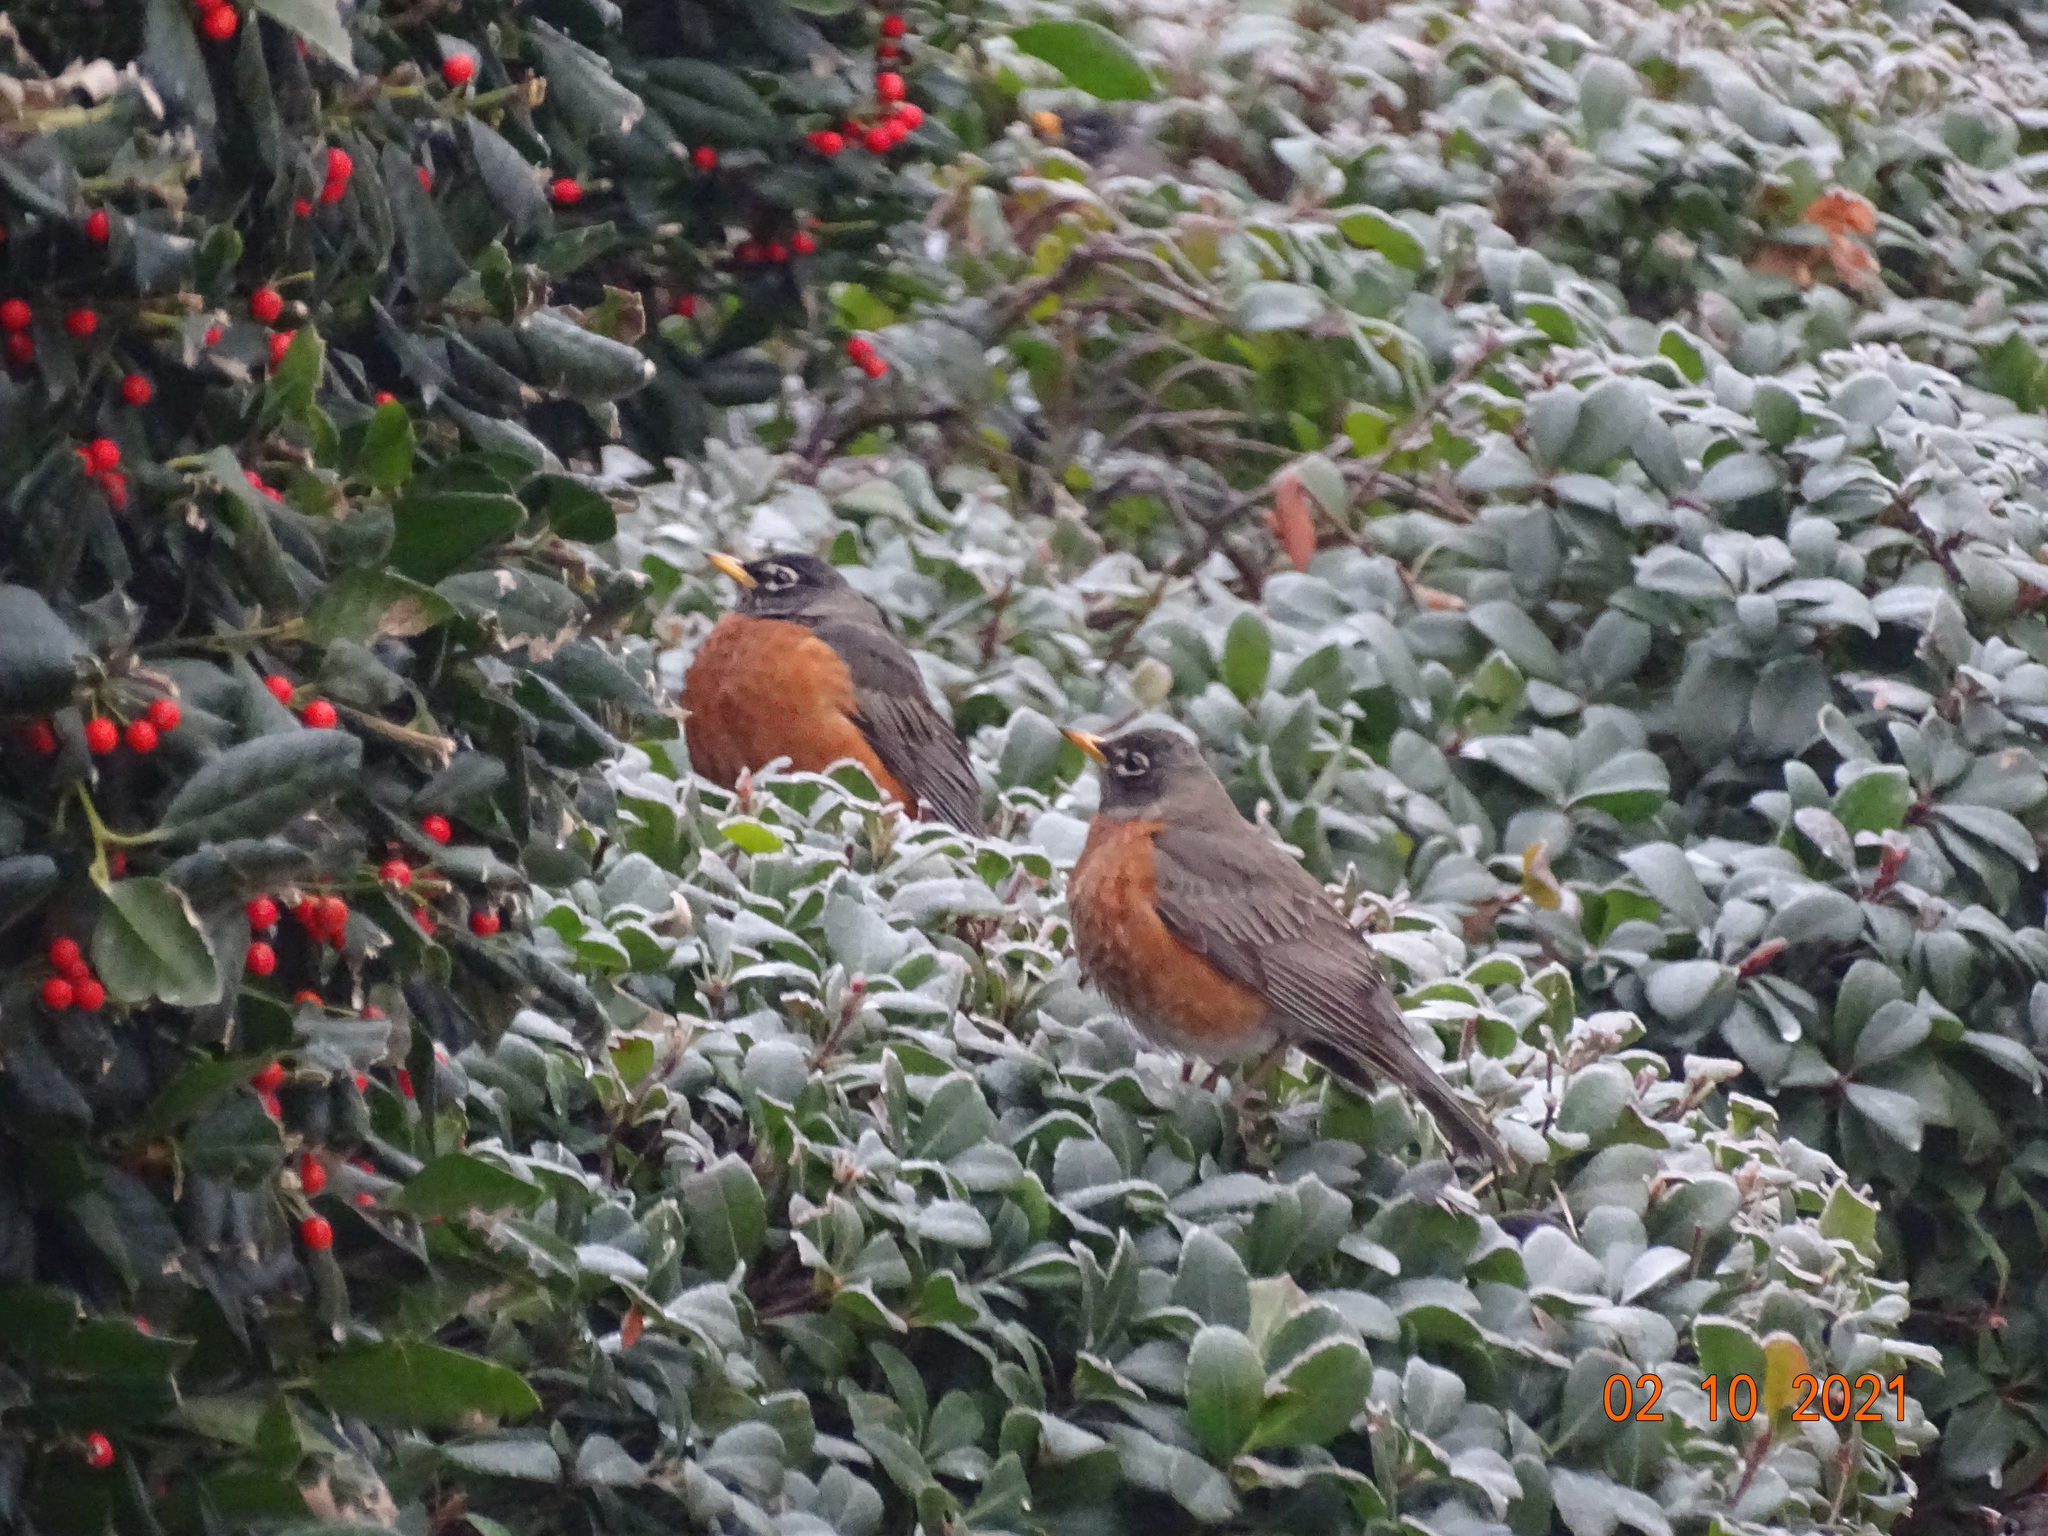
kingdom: Animalia
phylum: Chordata
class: Aves
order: Passeriformes
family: Turdidae
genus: Turdus
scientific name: Turdus migratorius
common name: American robin
